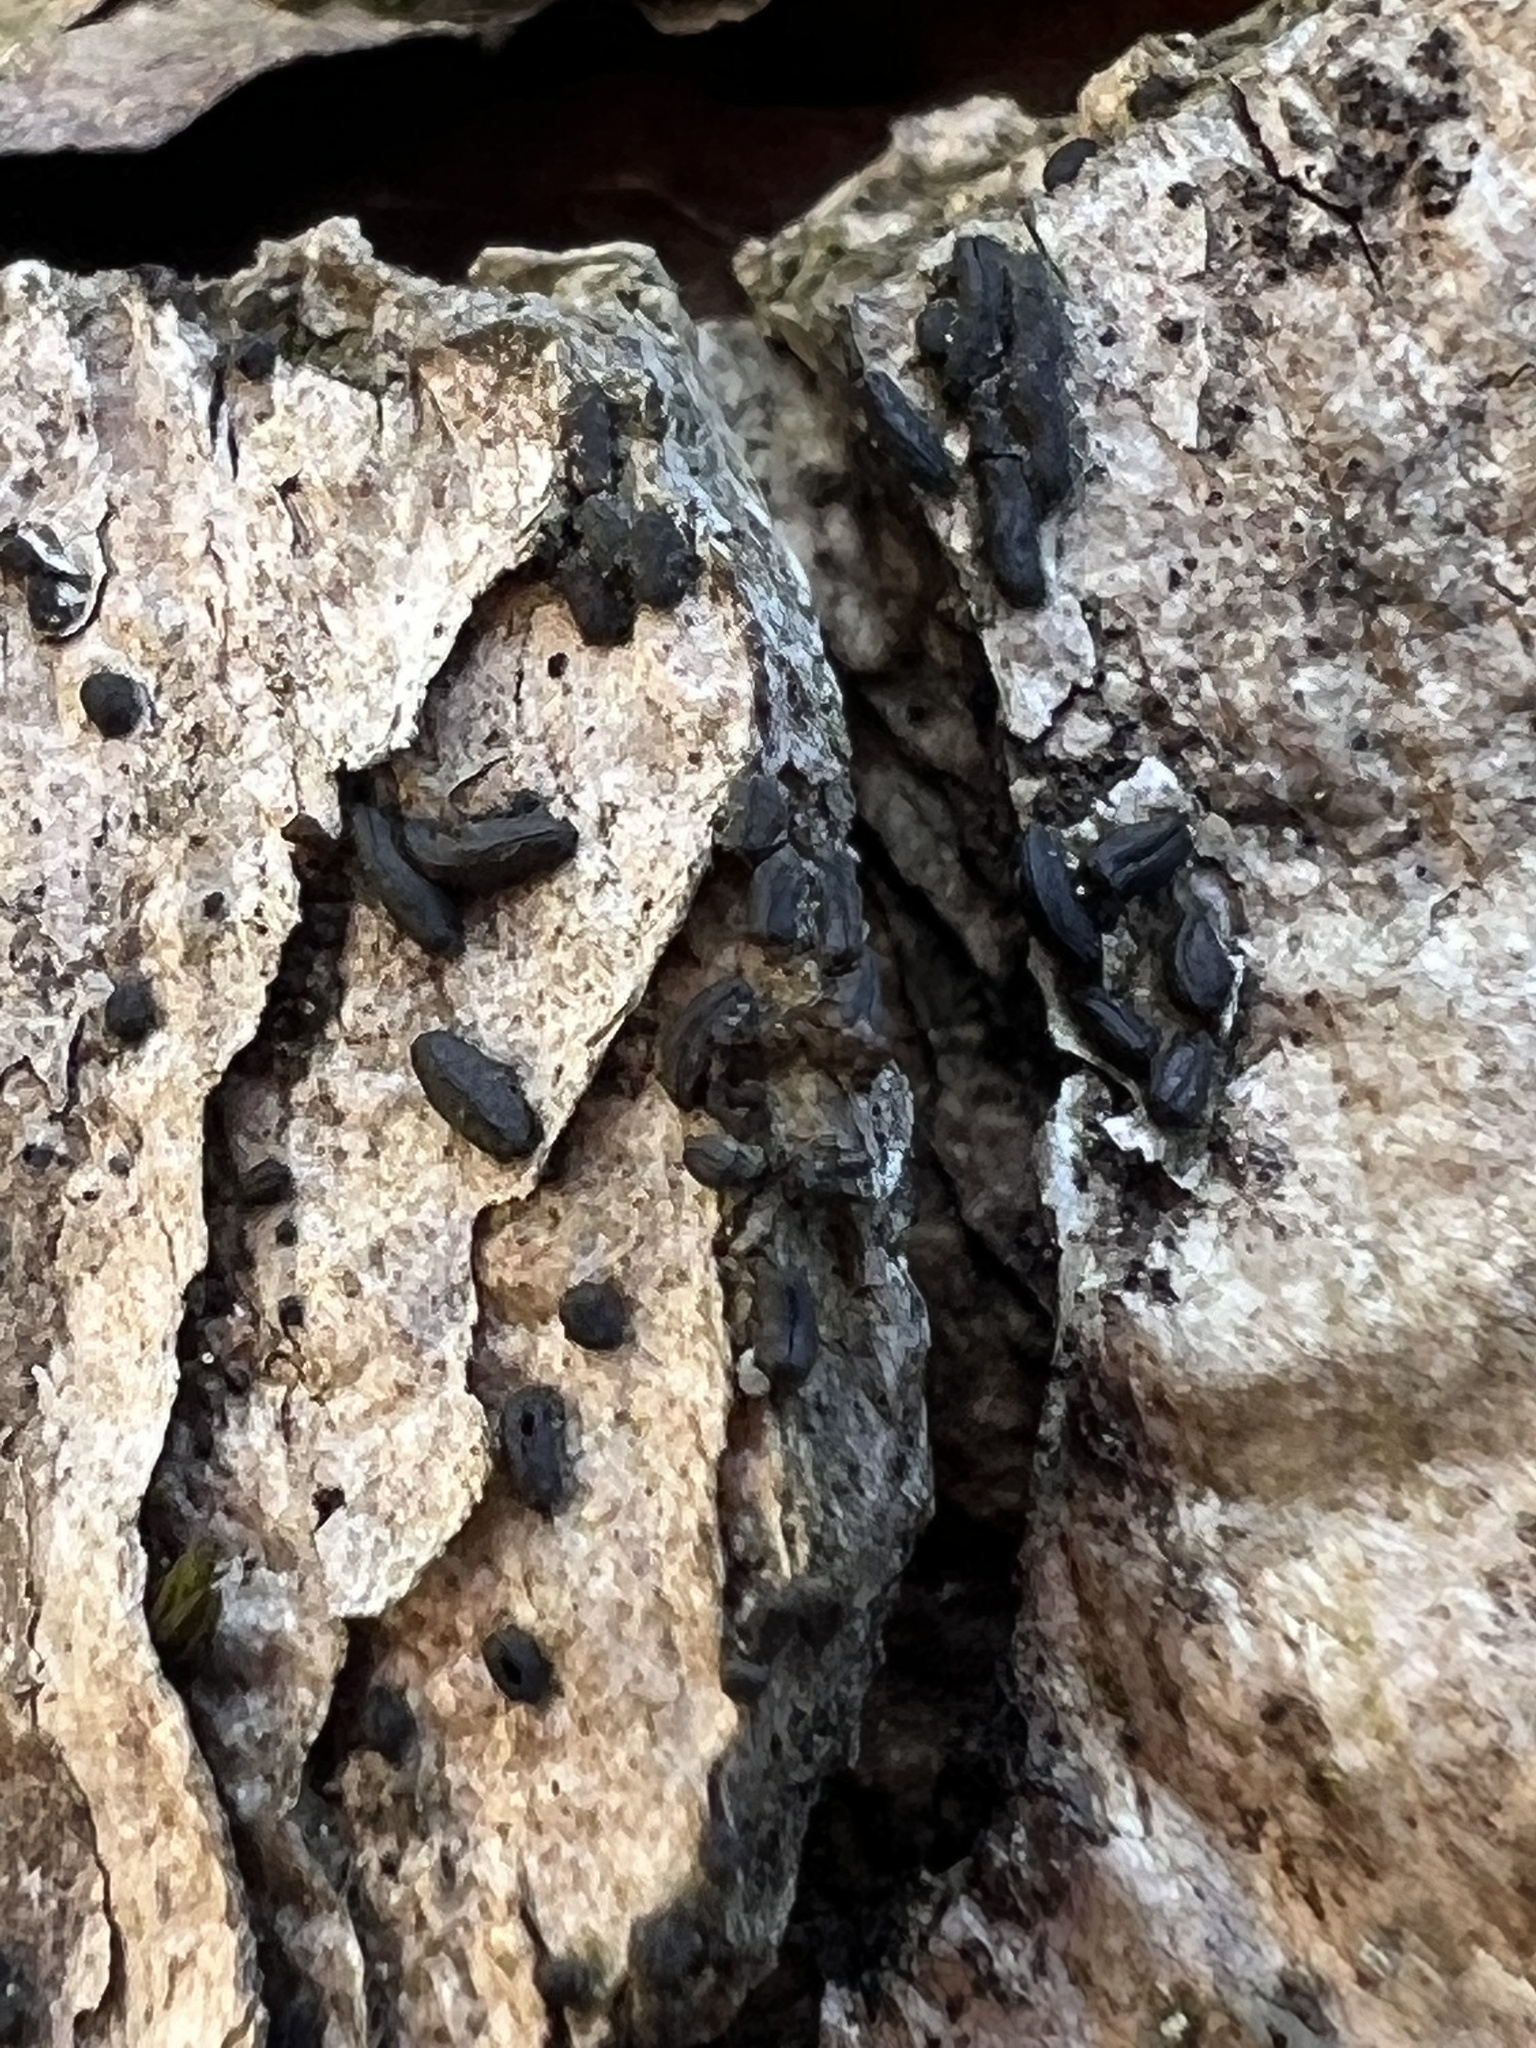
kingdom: Fungi
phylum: Ascomycota
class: Dothideomycetes
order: Hysteriales
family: Hysteriaceae
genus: Hysterium
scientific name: Hysterium pulicare
